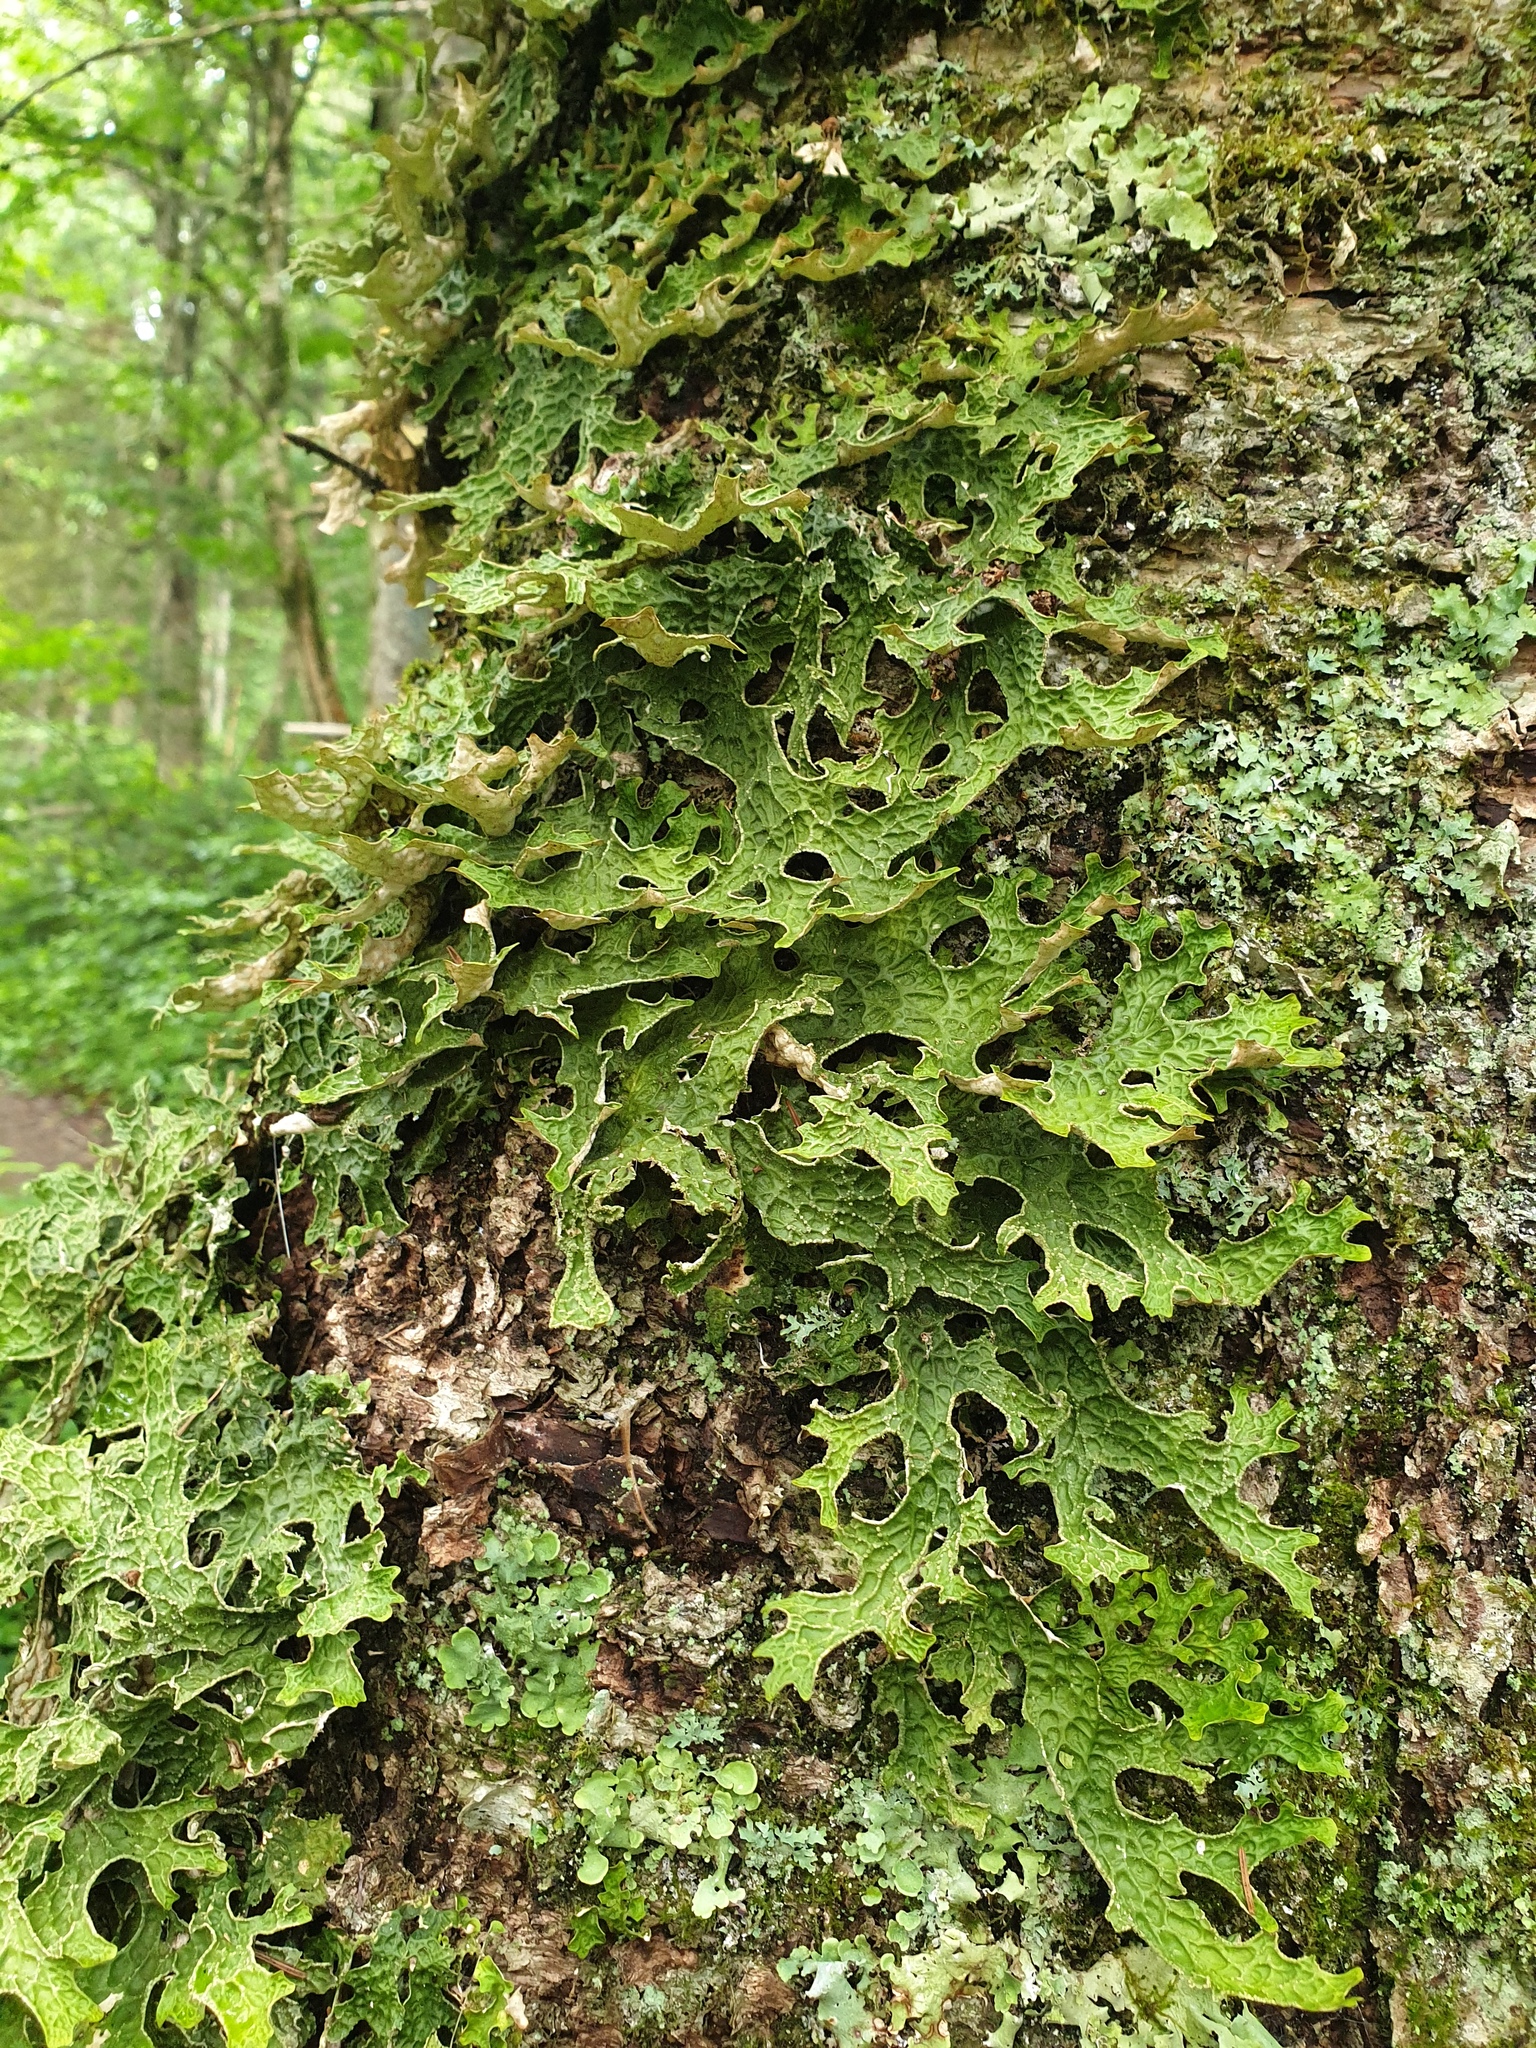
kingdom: Fungi
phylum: Ascomycota
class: Lecanoromycetes
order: Peltigerales
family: Lobariaceae
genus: Lobaria
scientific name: Lobaria pulmonaria
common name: Lungwort
